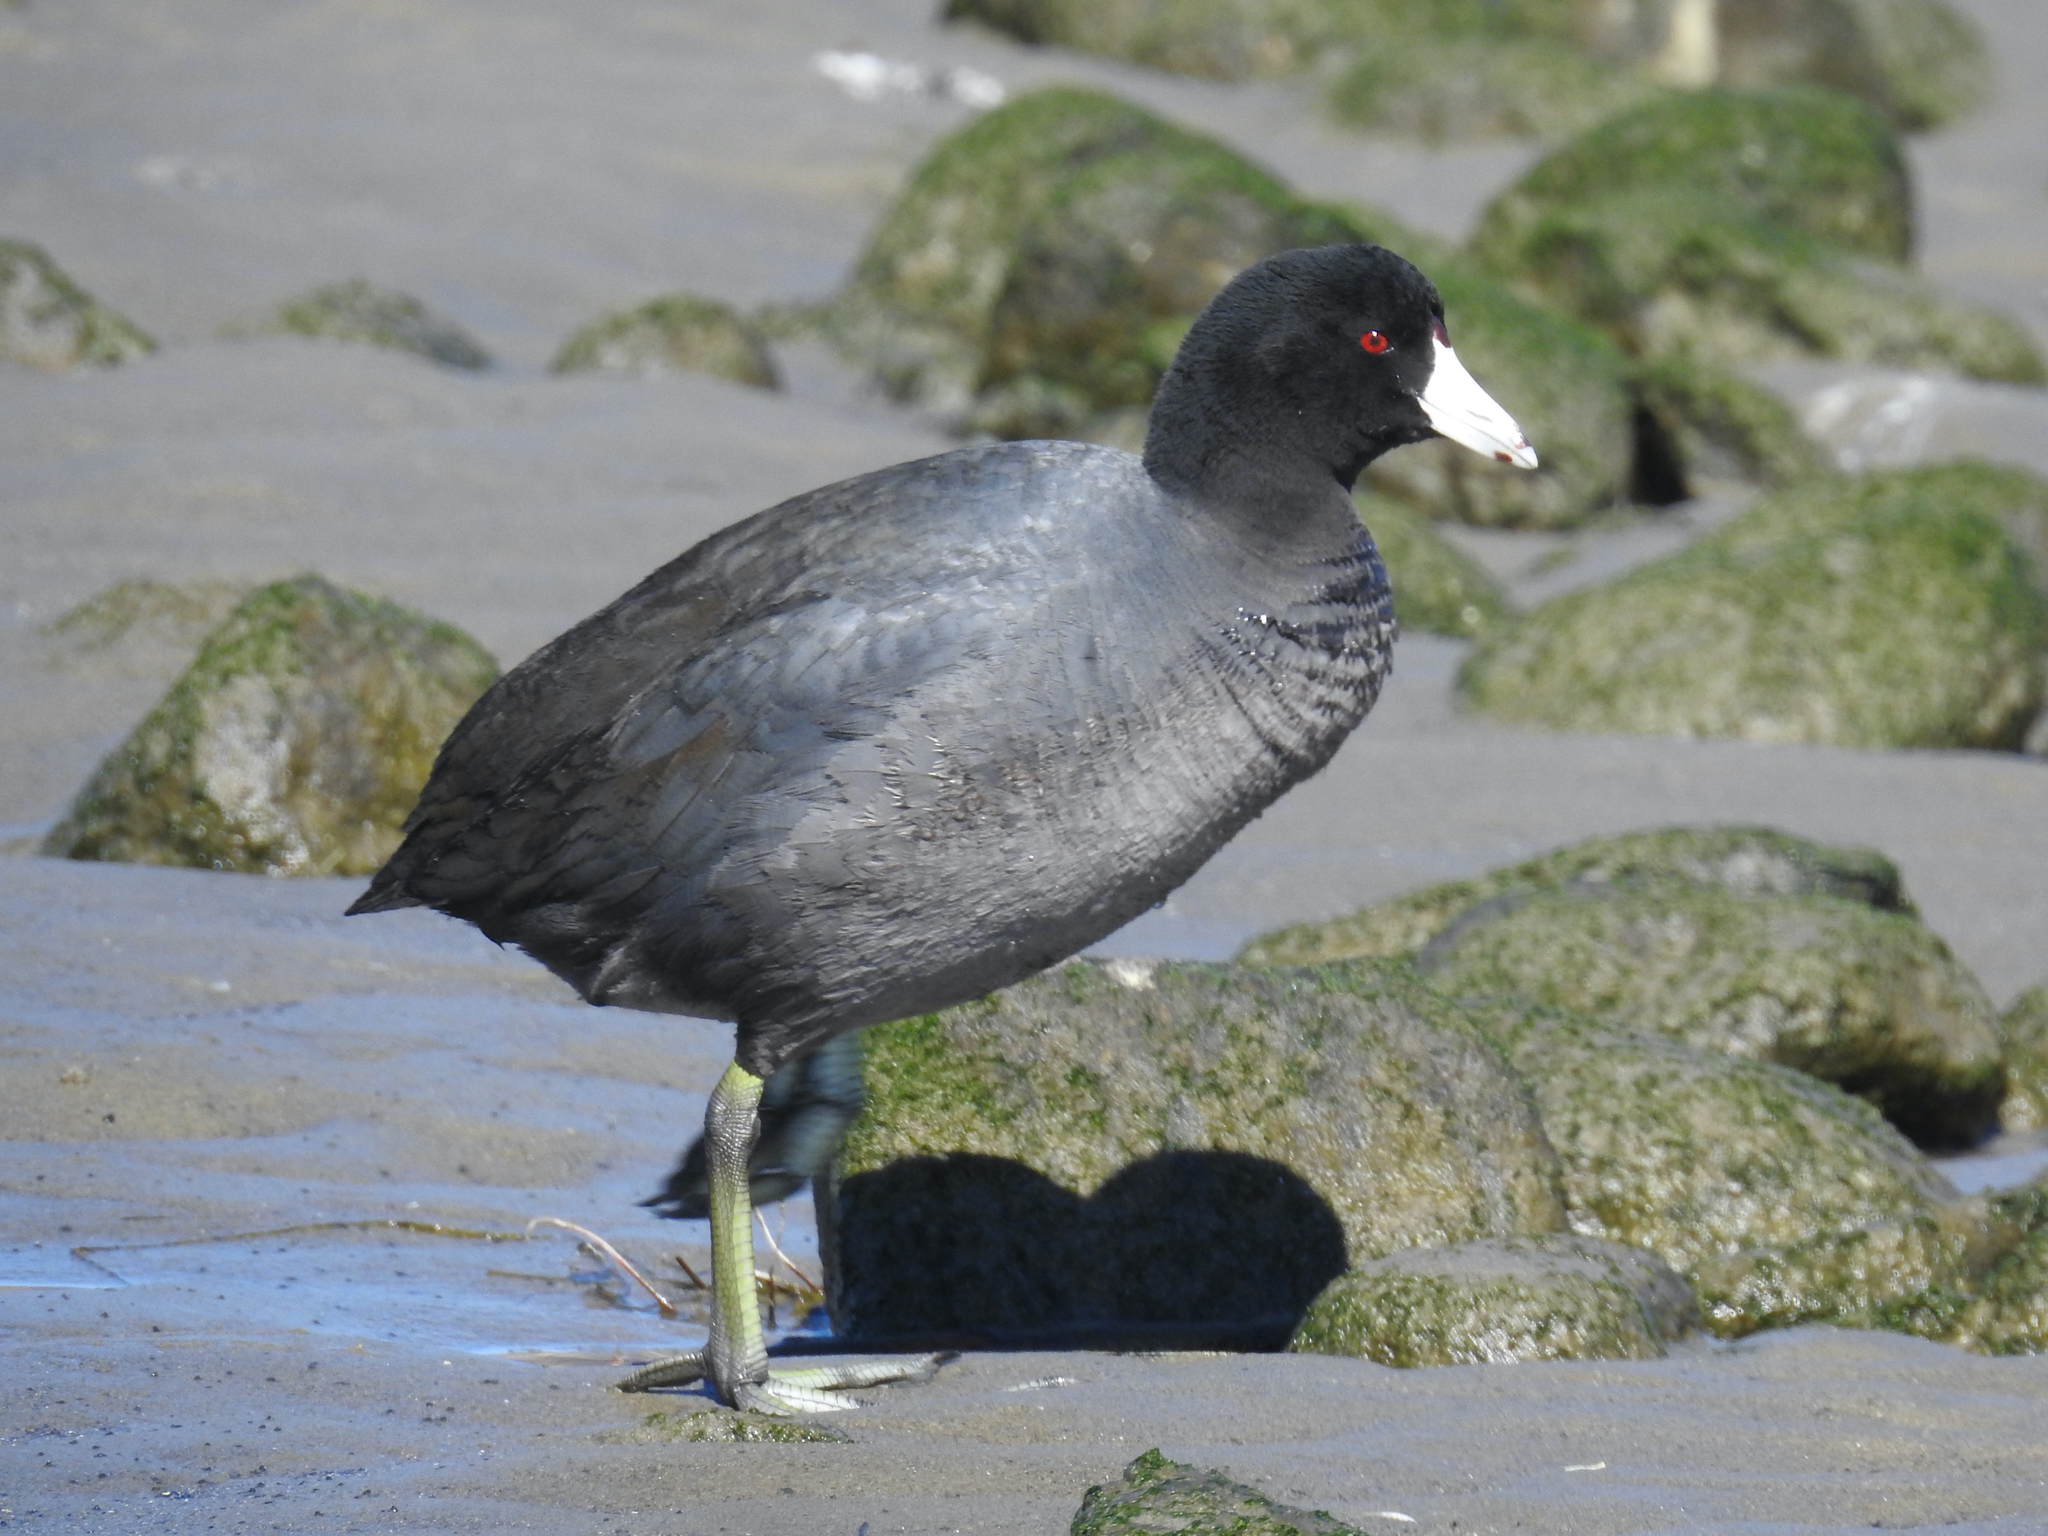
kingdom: Animalia
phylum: Chordata
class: Aves
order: Gruiformes
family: Rallidae
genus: Fulica
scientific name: Fulica americana
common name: American coot
